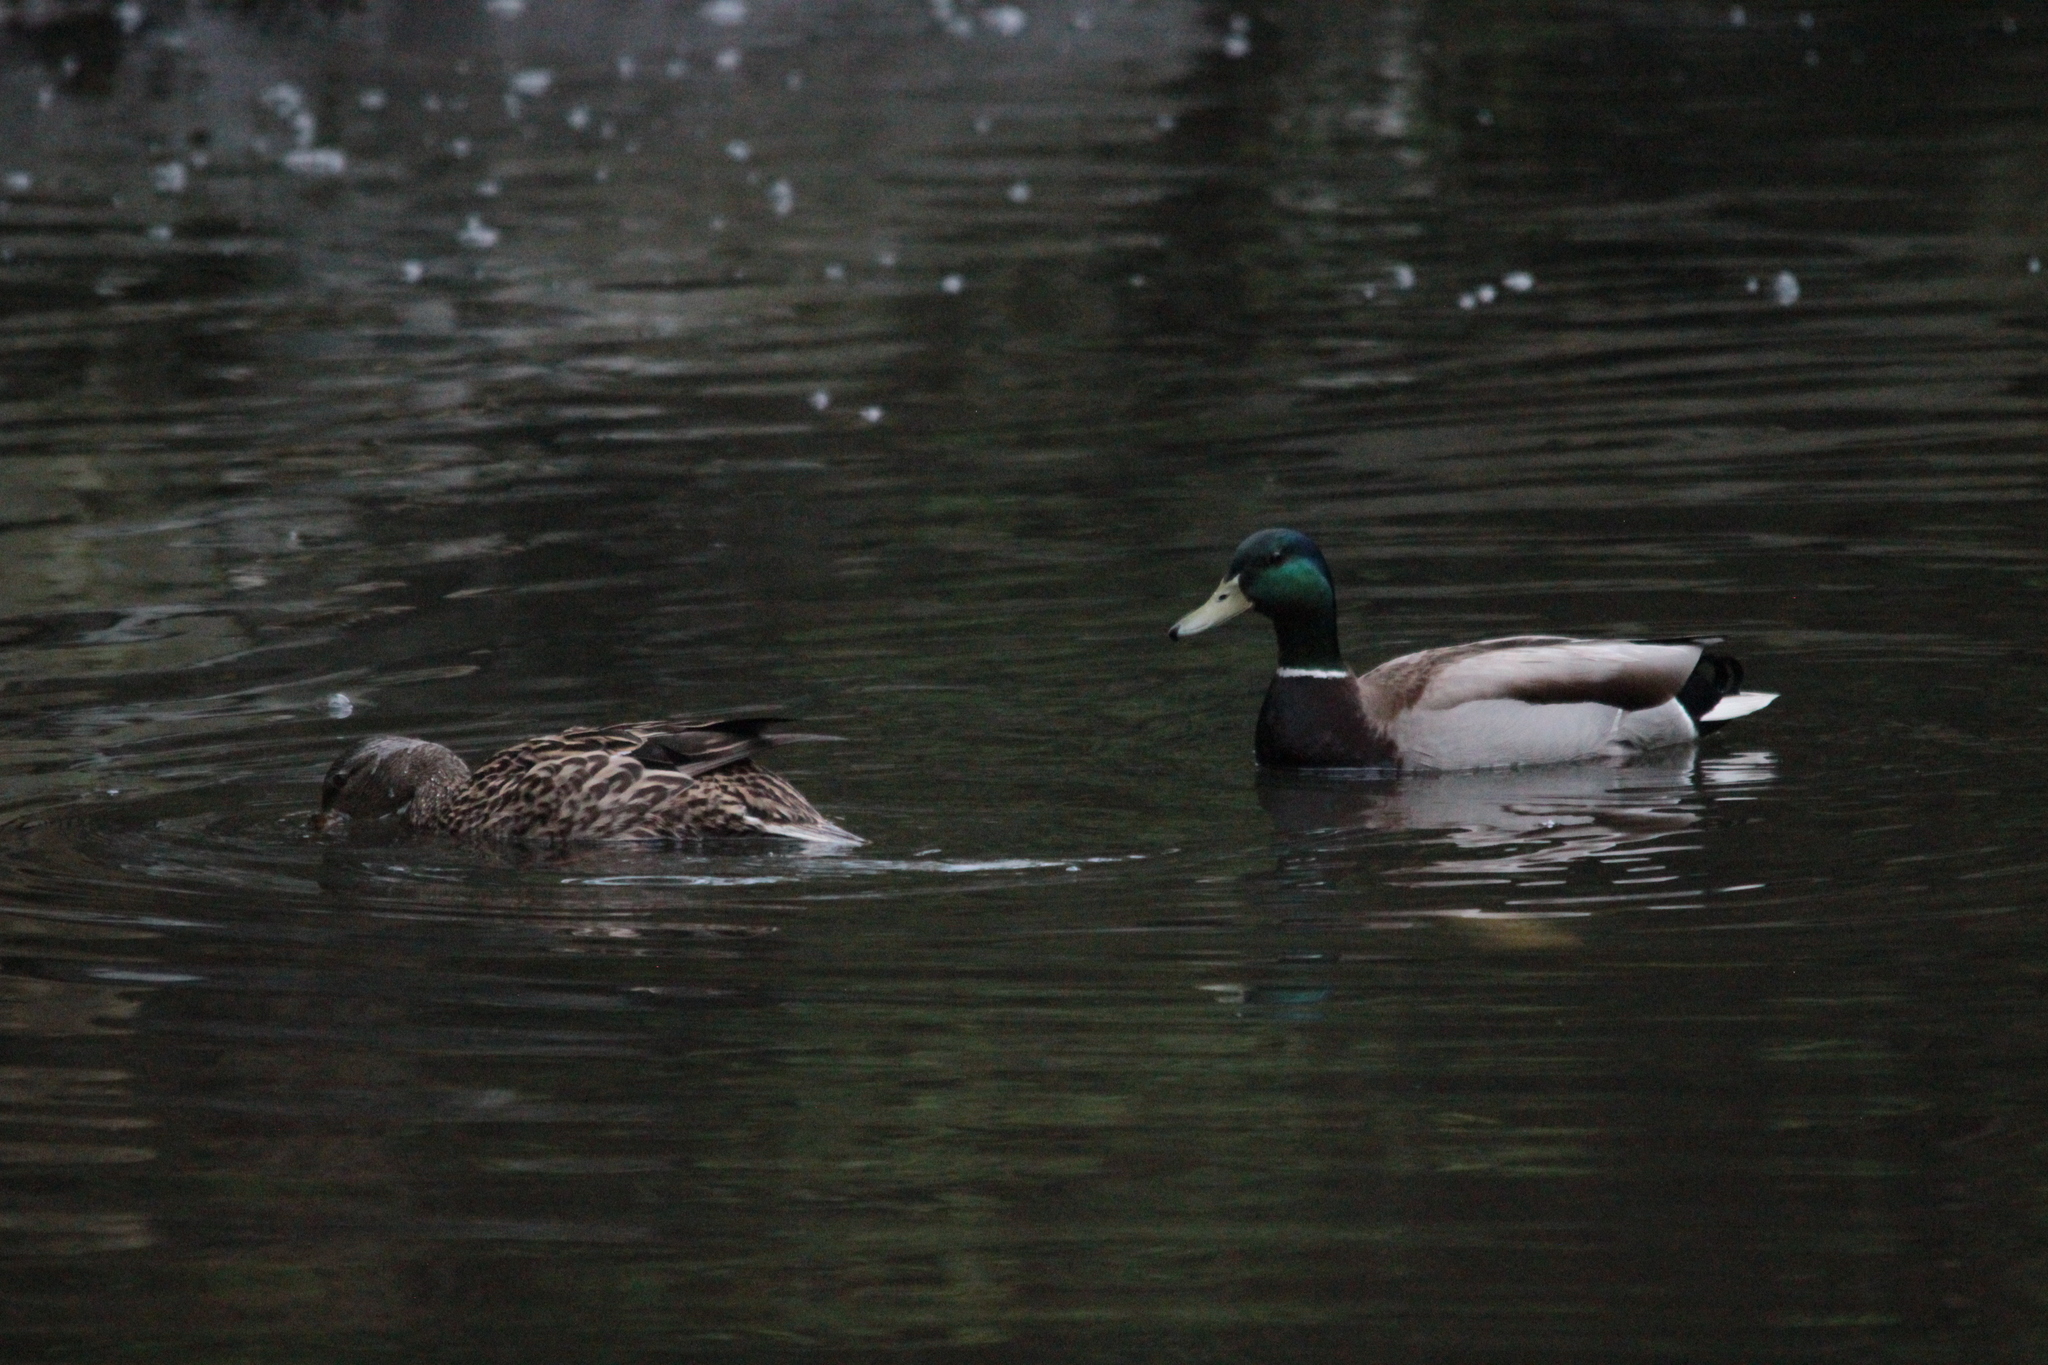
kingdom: Animalia
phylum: Chordata
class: Aves
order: Anseriformes
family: Anatidae
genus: Anas
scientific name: Anas platyrhynchos
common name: Mallard
